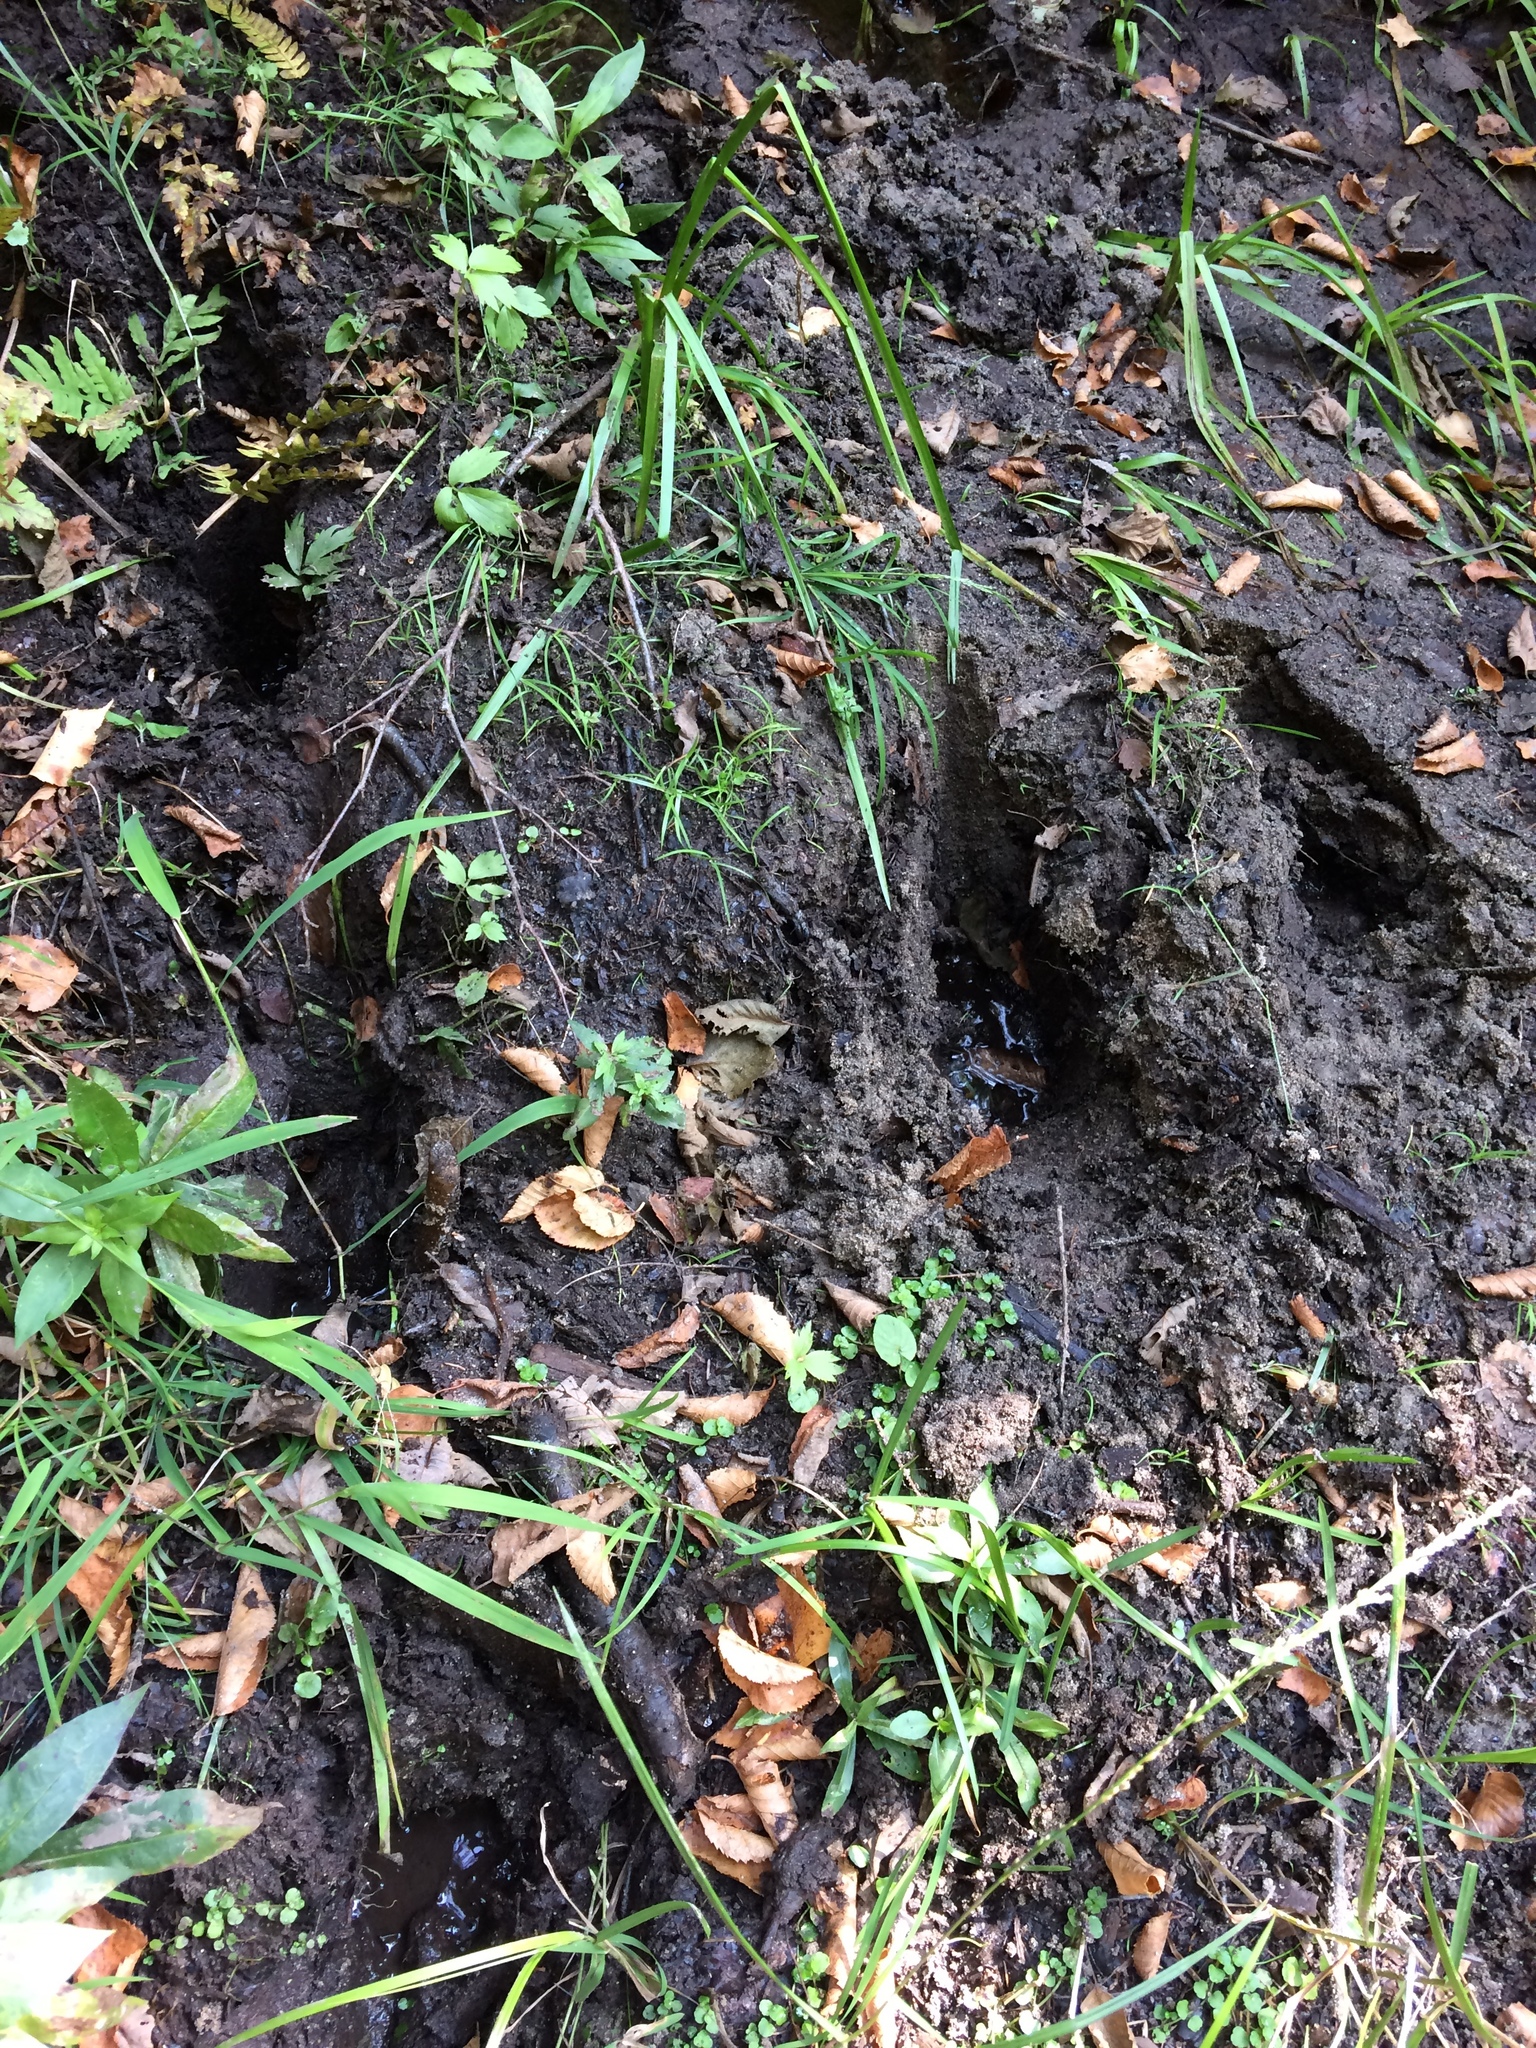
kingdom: Animalia
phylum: Chordata
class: Mammalia
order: Artiodactyla
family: Cervidae
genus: Alces
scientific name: Alces alces
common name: Moose
